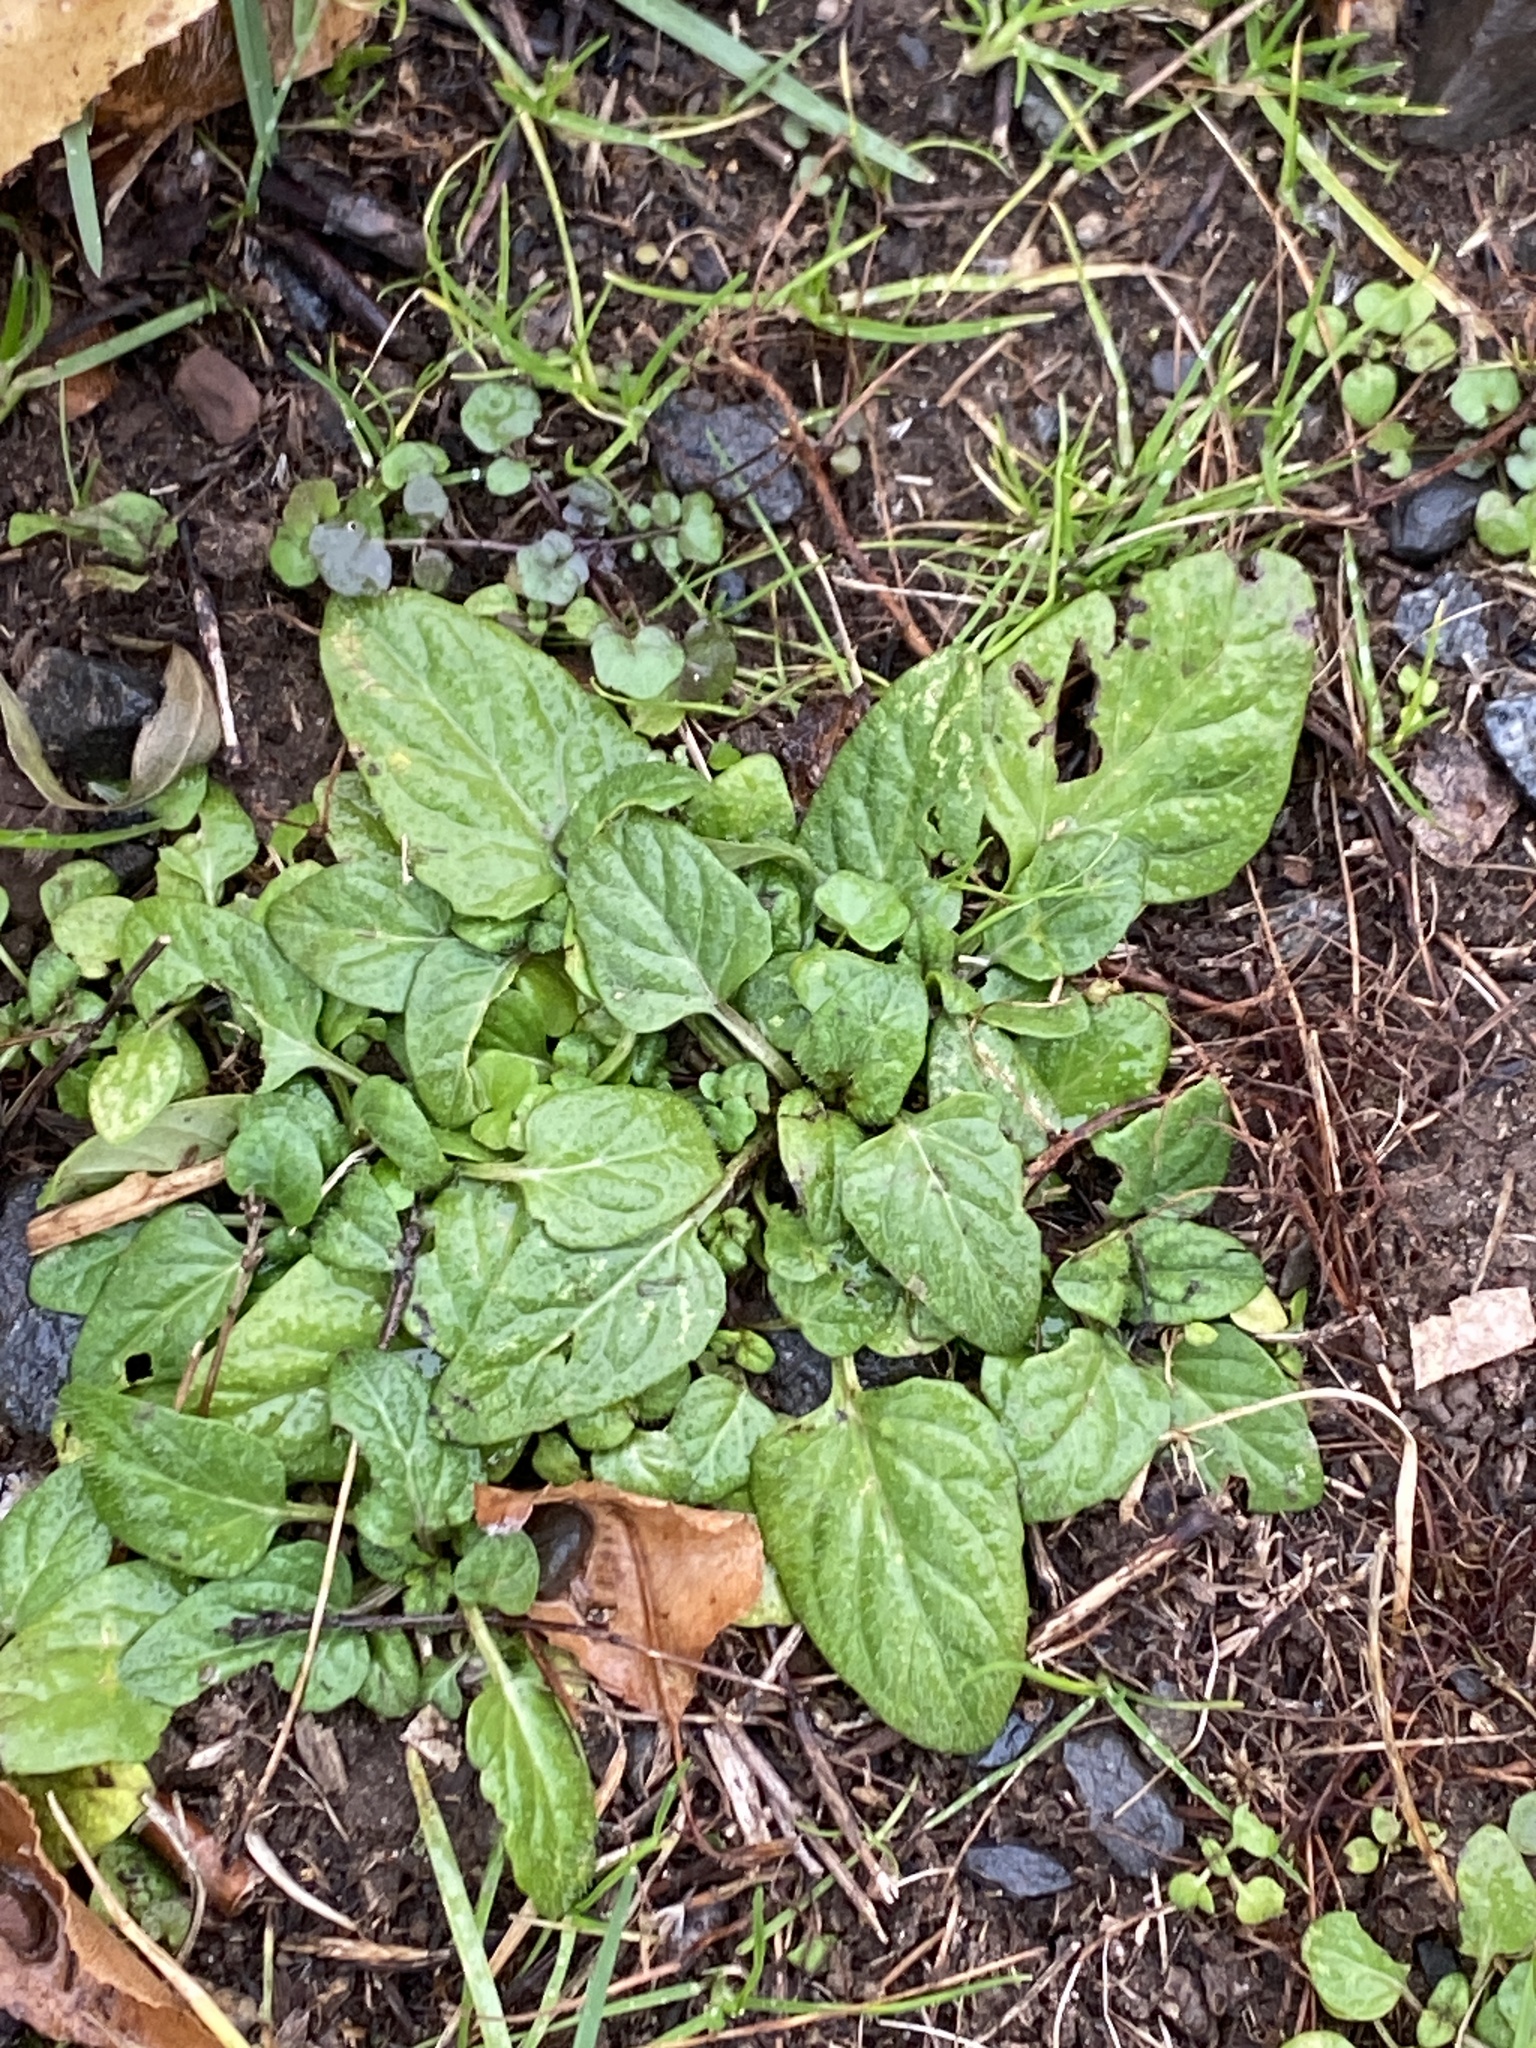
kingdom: Plantae
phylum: Tracheophyta
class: Magnoliopsida
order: Lamiales
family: Lamiaceae
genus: Prunella
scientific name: Prunella vulgaris
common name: Heal-all
